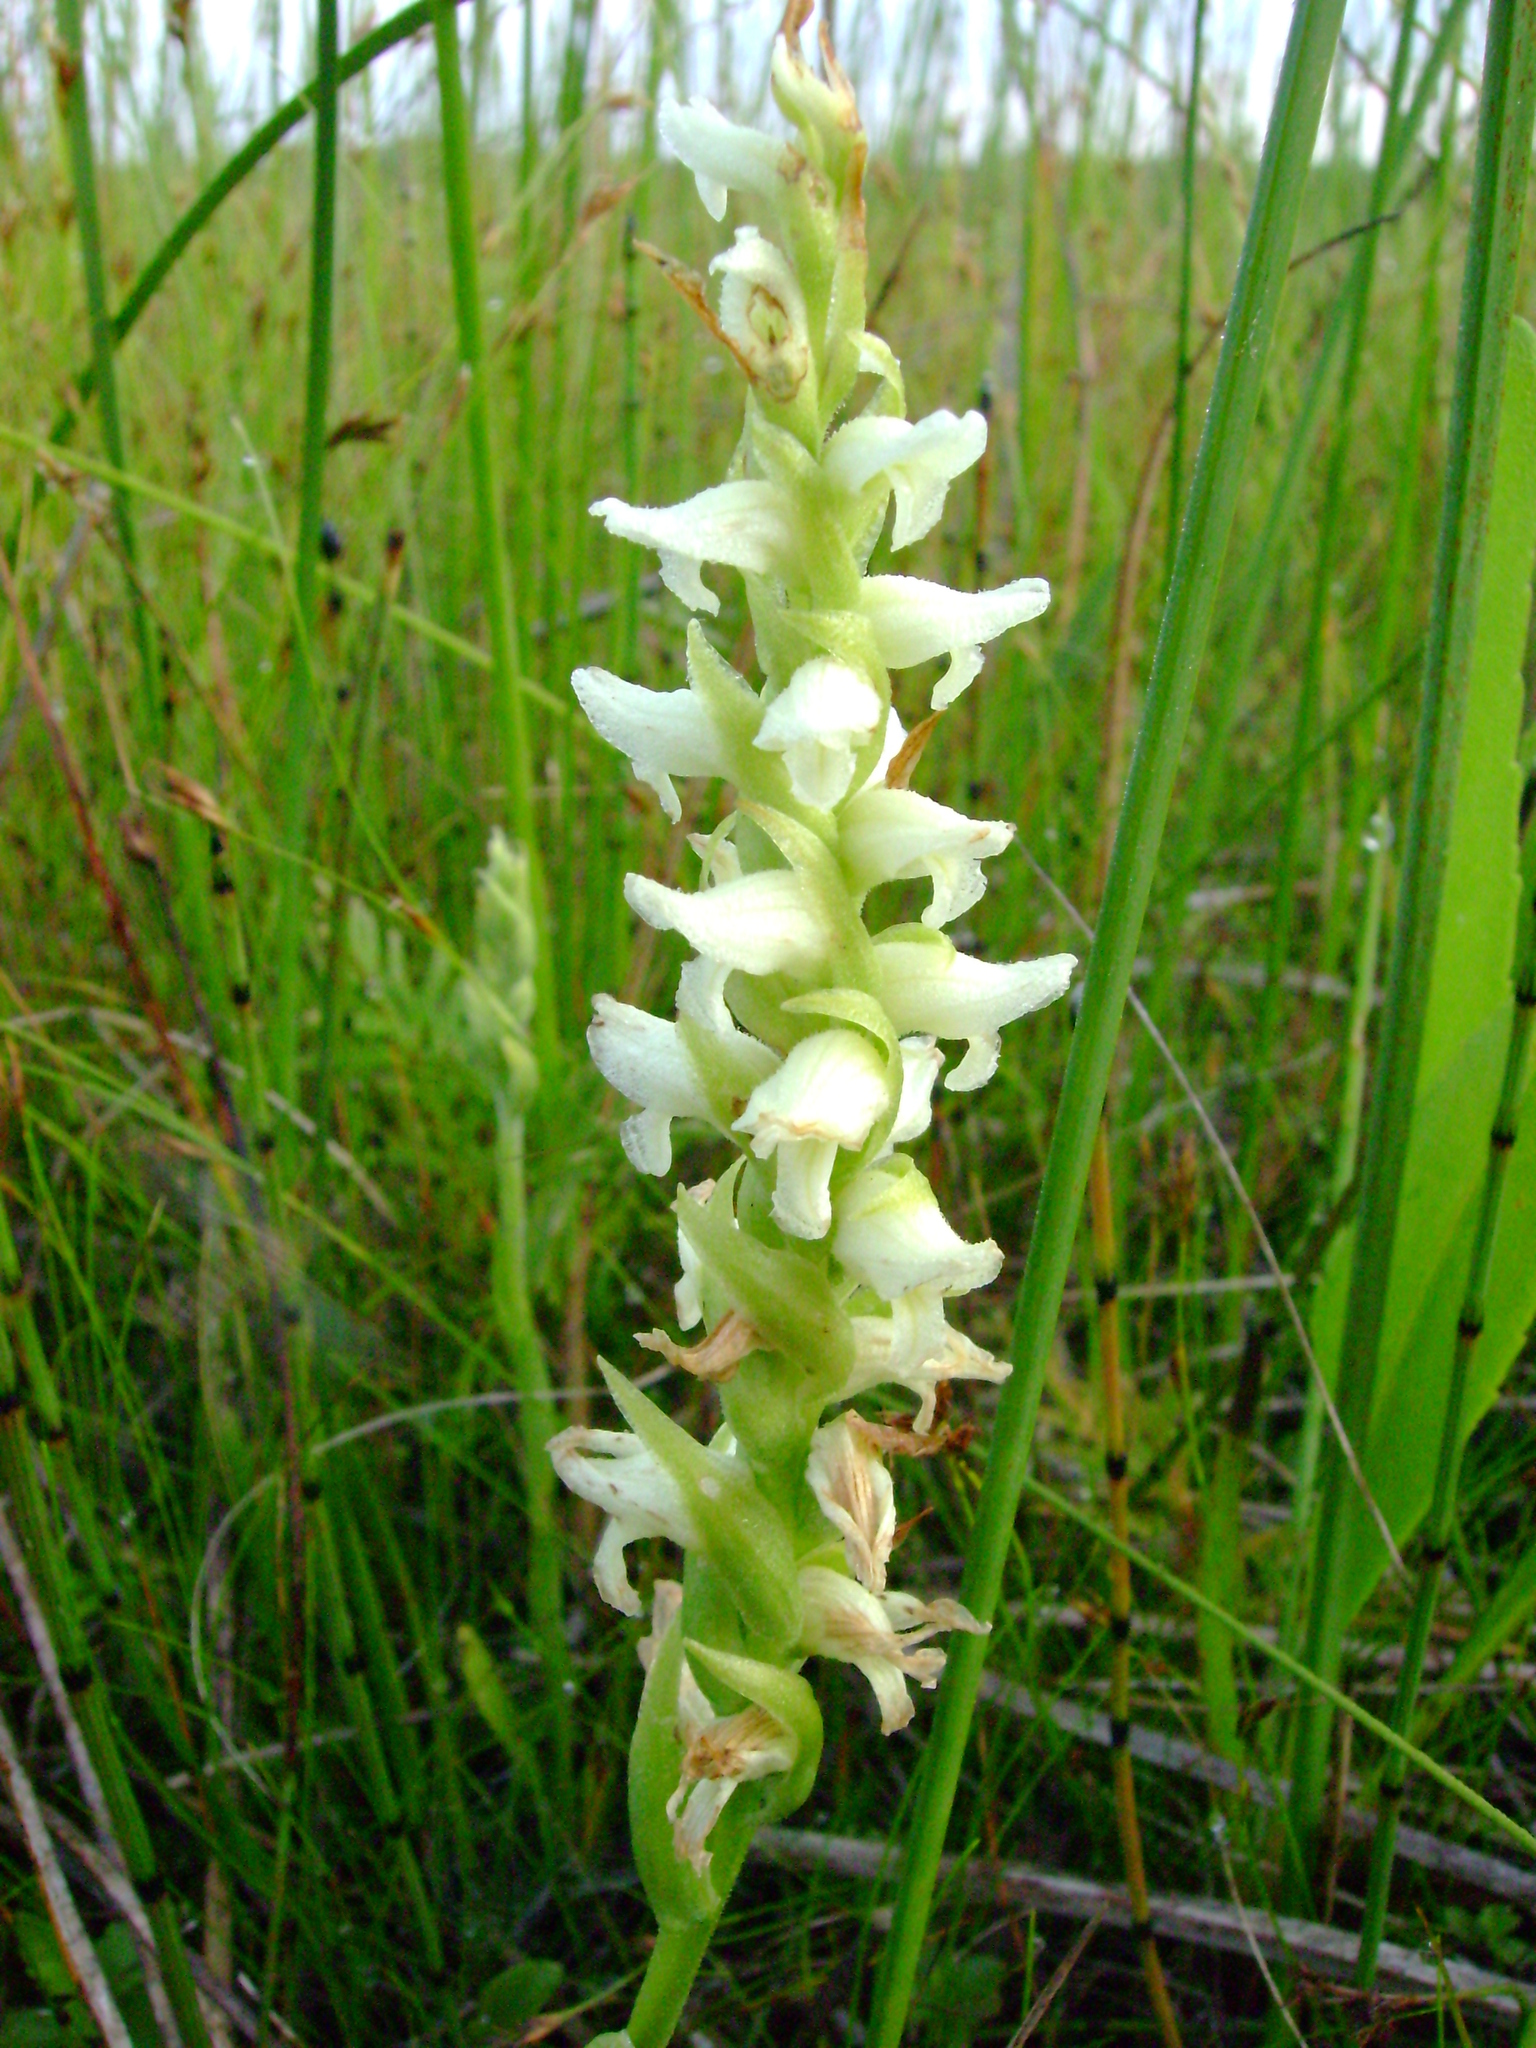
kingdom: Plantae
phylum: Tracheophyta
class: Liliopsida
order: Asparagales
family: Orchidaceae
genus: Spiranthes
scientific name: Spiranthes romanzoffiana
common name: Irish lady's-tresses
